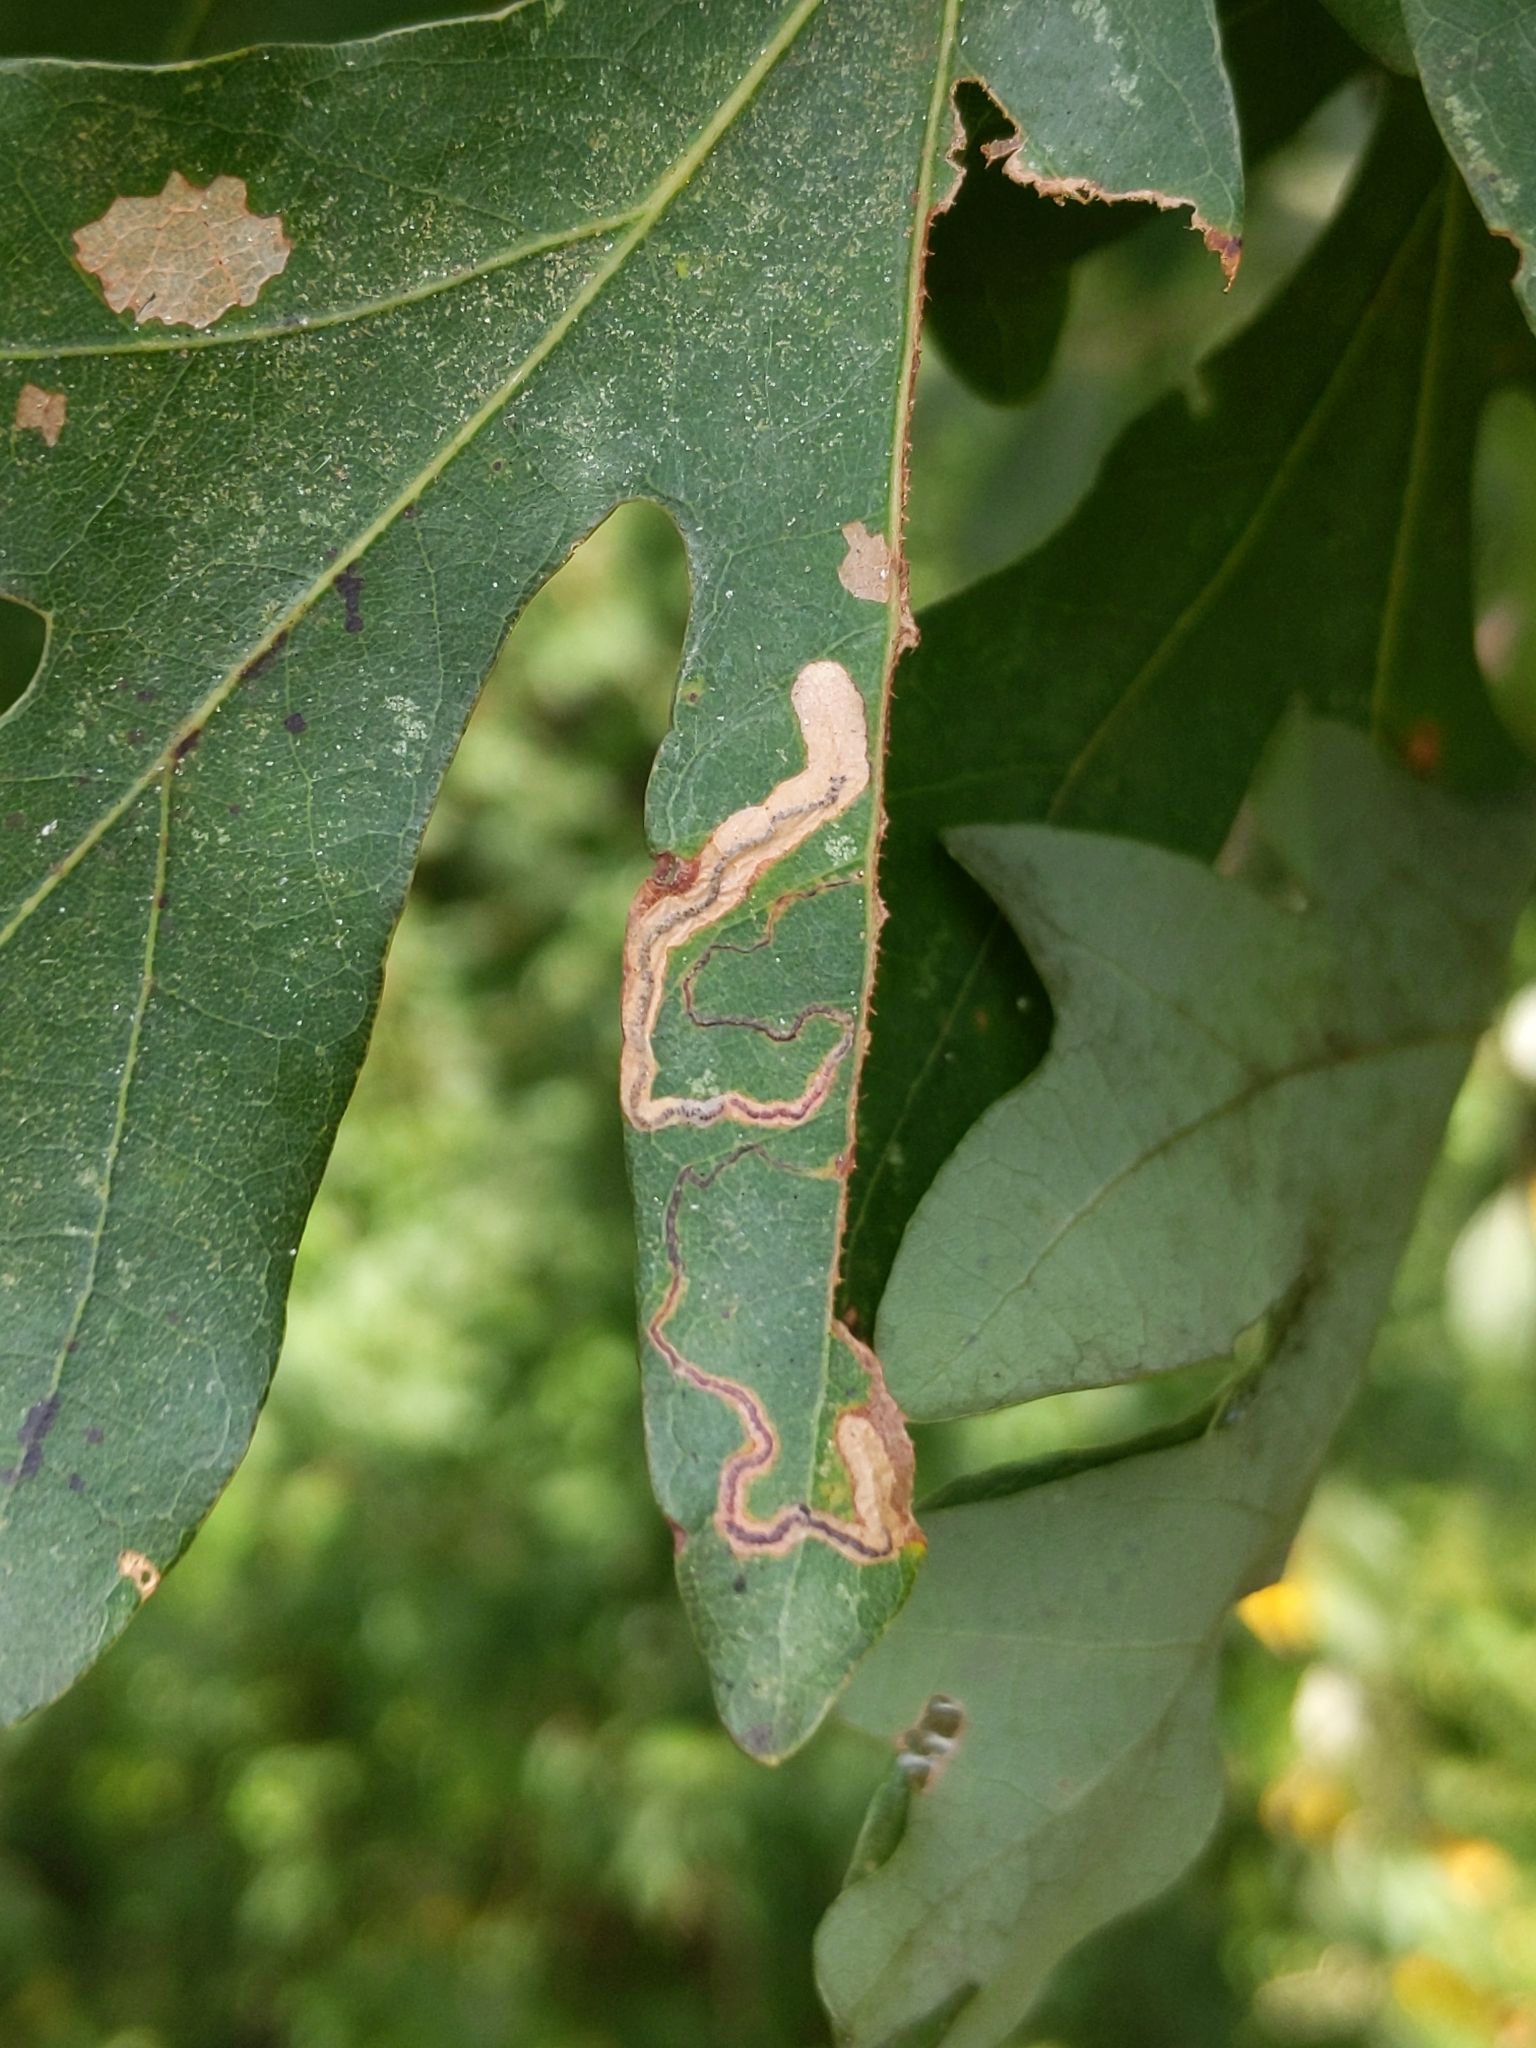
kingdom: Animalia
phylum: Arthropoda
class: Insecta
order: Lepidoptera
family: Nepticulidae
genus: Stigmella
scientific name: Stigmella
